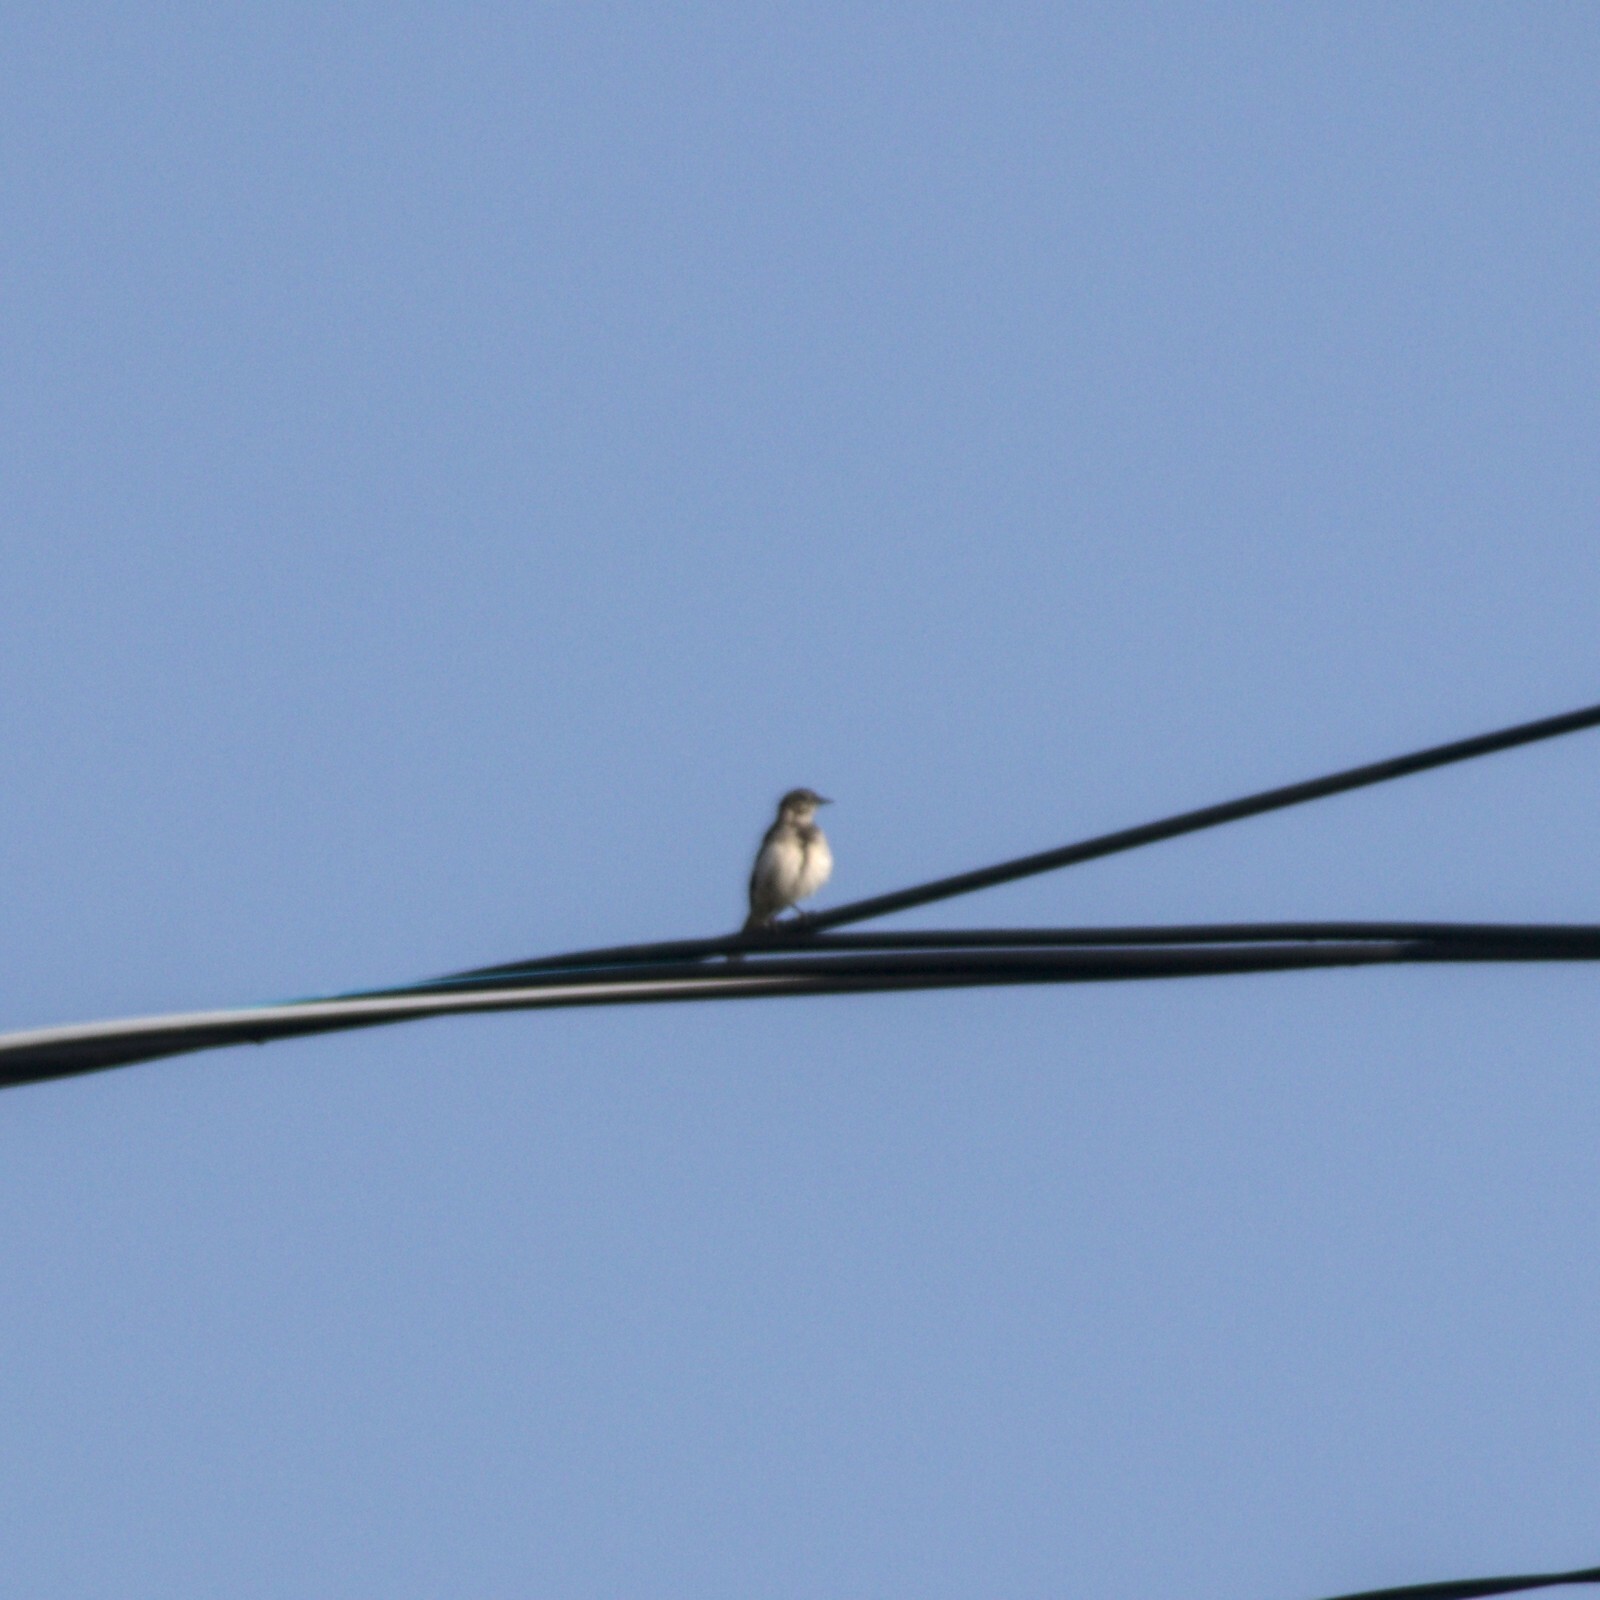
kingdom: Animalia
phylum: Chordata
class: Aves
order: Passeriformes
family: Motacillidae
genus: Motacilla
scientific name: Motacilla alba
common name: White wagtail
